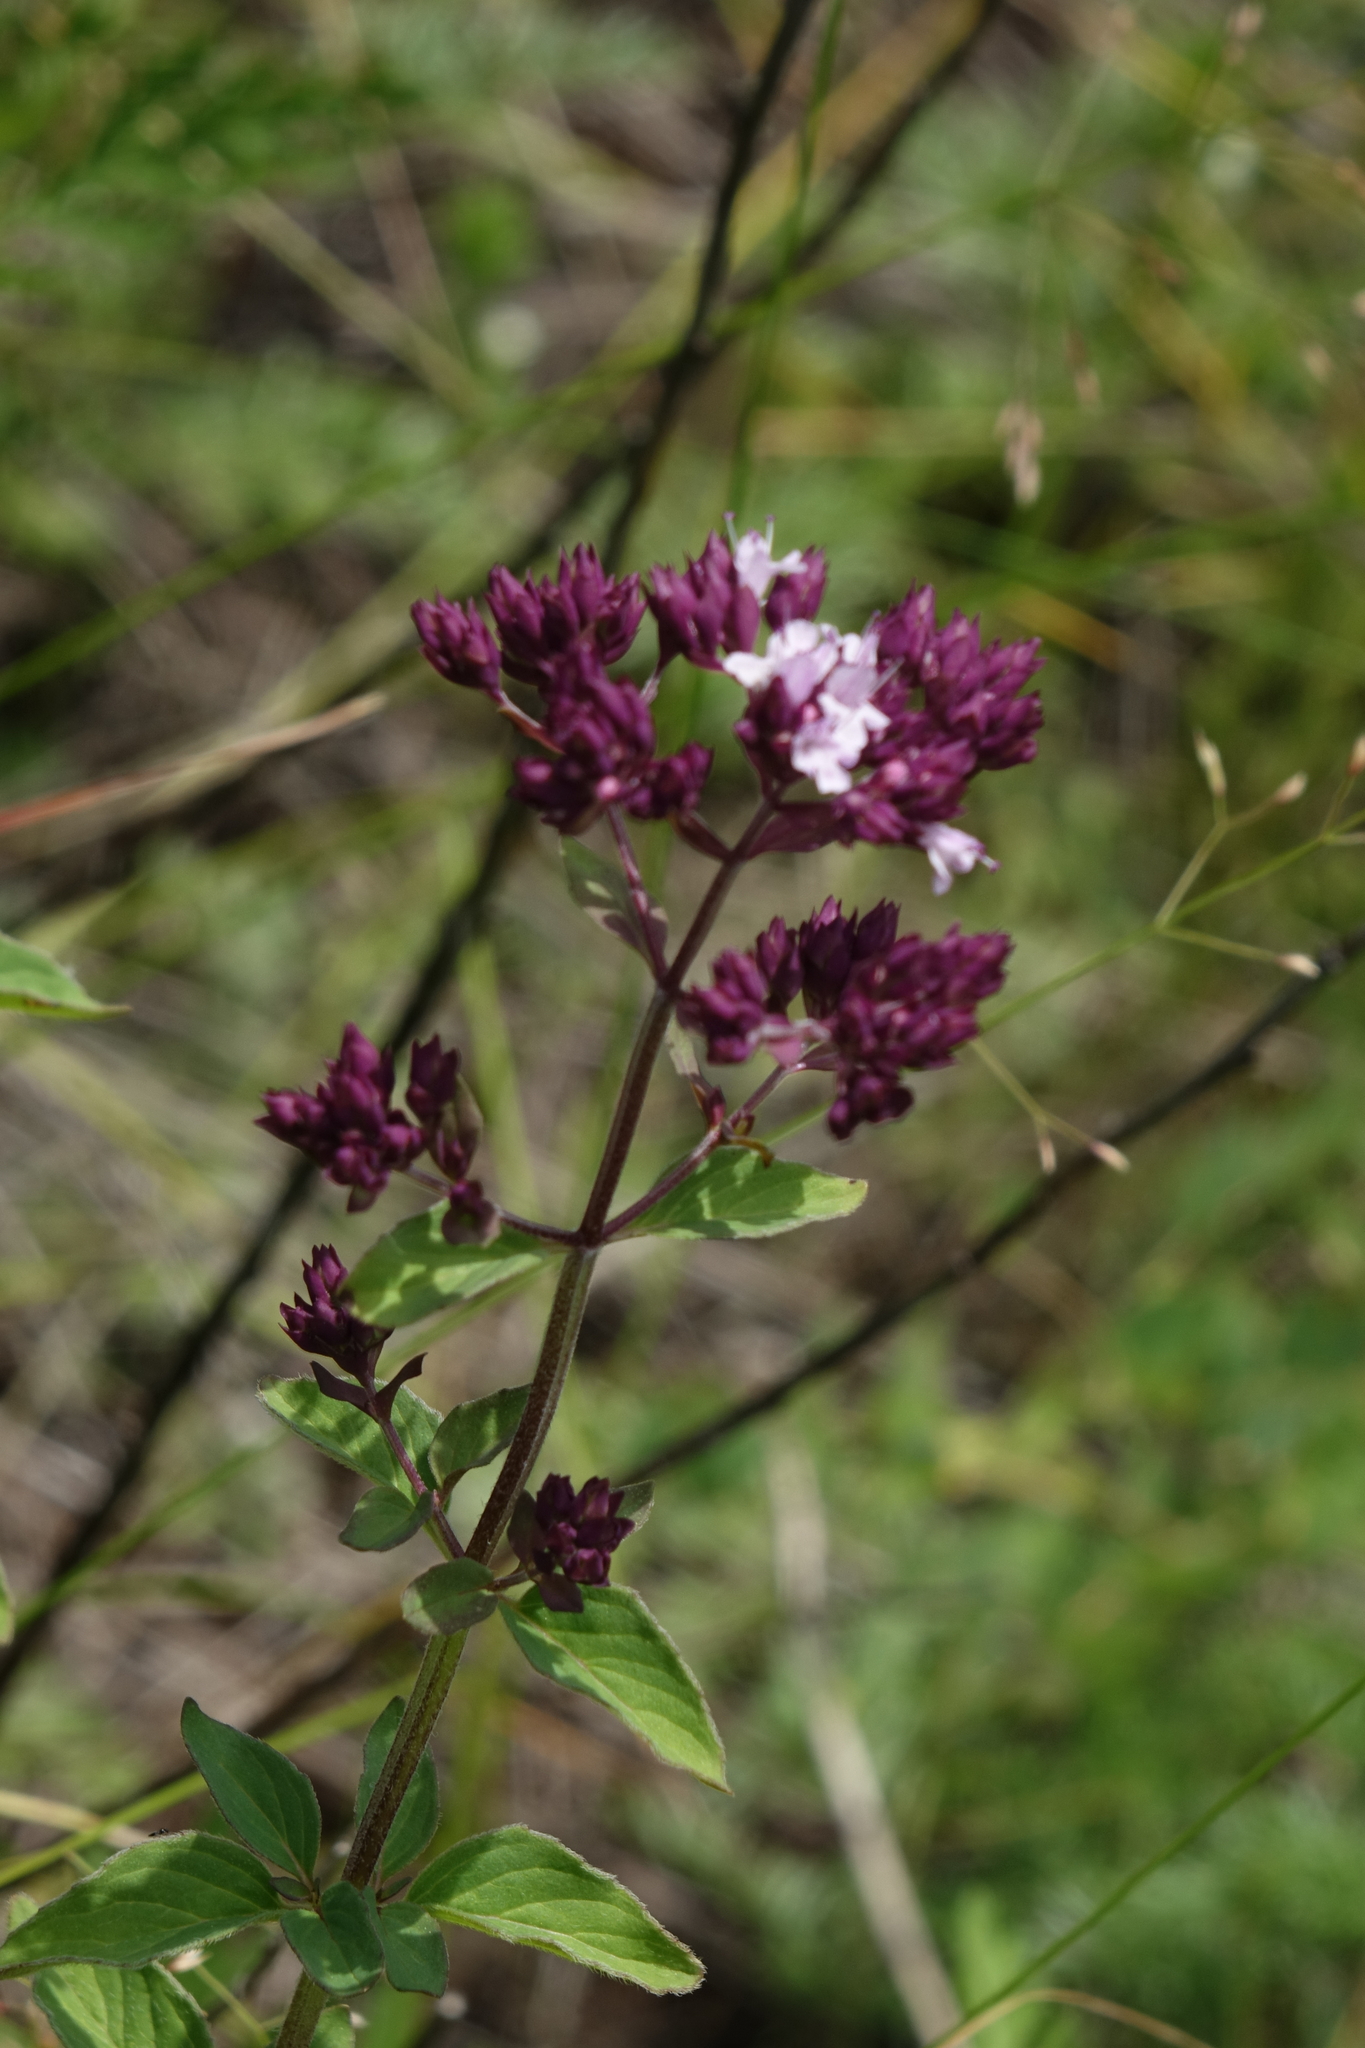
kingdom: Plantae
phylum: Tracheophyta
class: Magnoliopsida
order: Lamiales
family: Lamiaceae
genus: Origanum
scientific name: Origanum vulgare
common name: Wild marjoram
